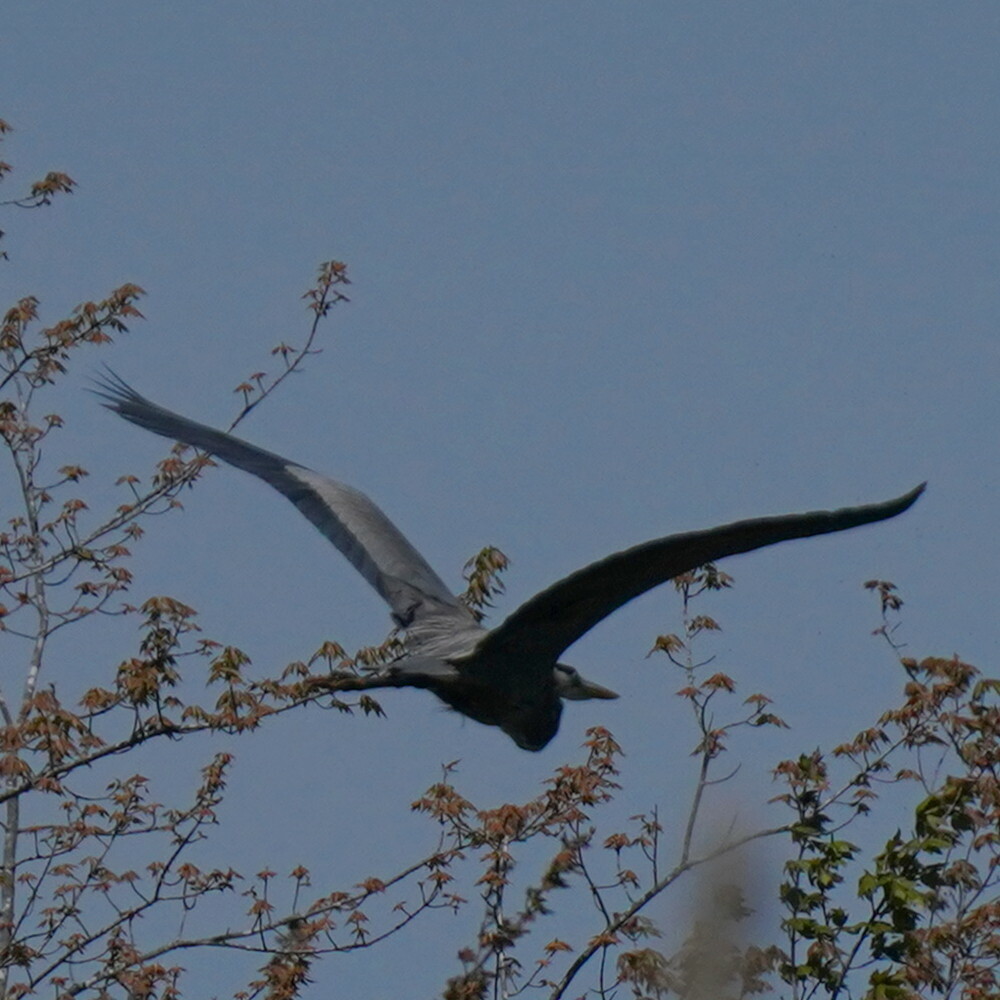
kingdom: Animalia
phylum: Chordata
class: Aves
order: Pelecaniformes
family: Ardeidae
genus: Ardea
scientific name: Ardea herodias
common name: Great blue heron
